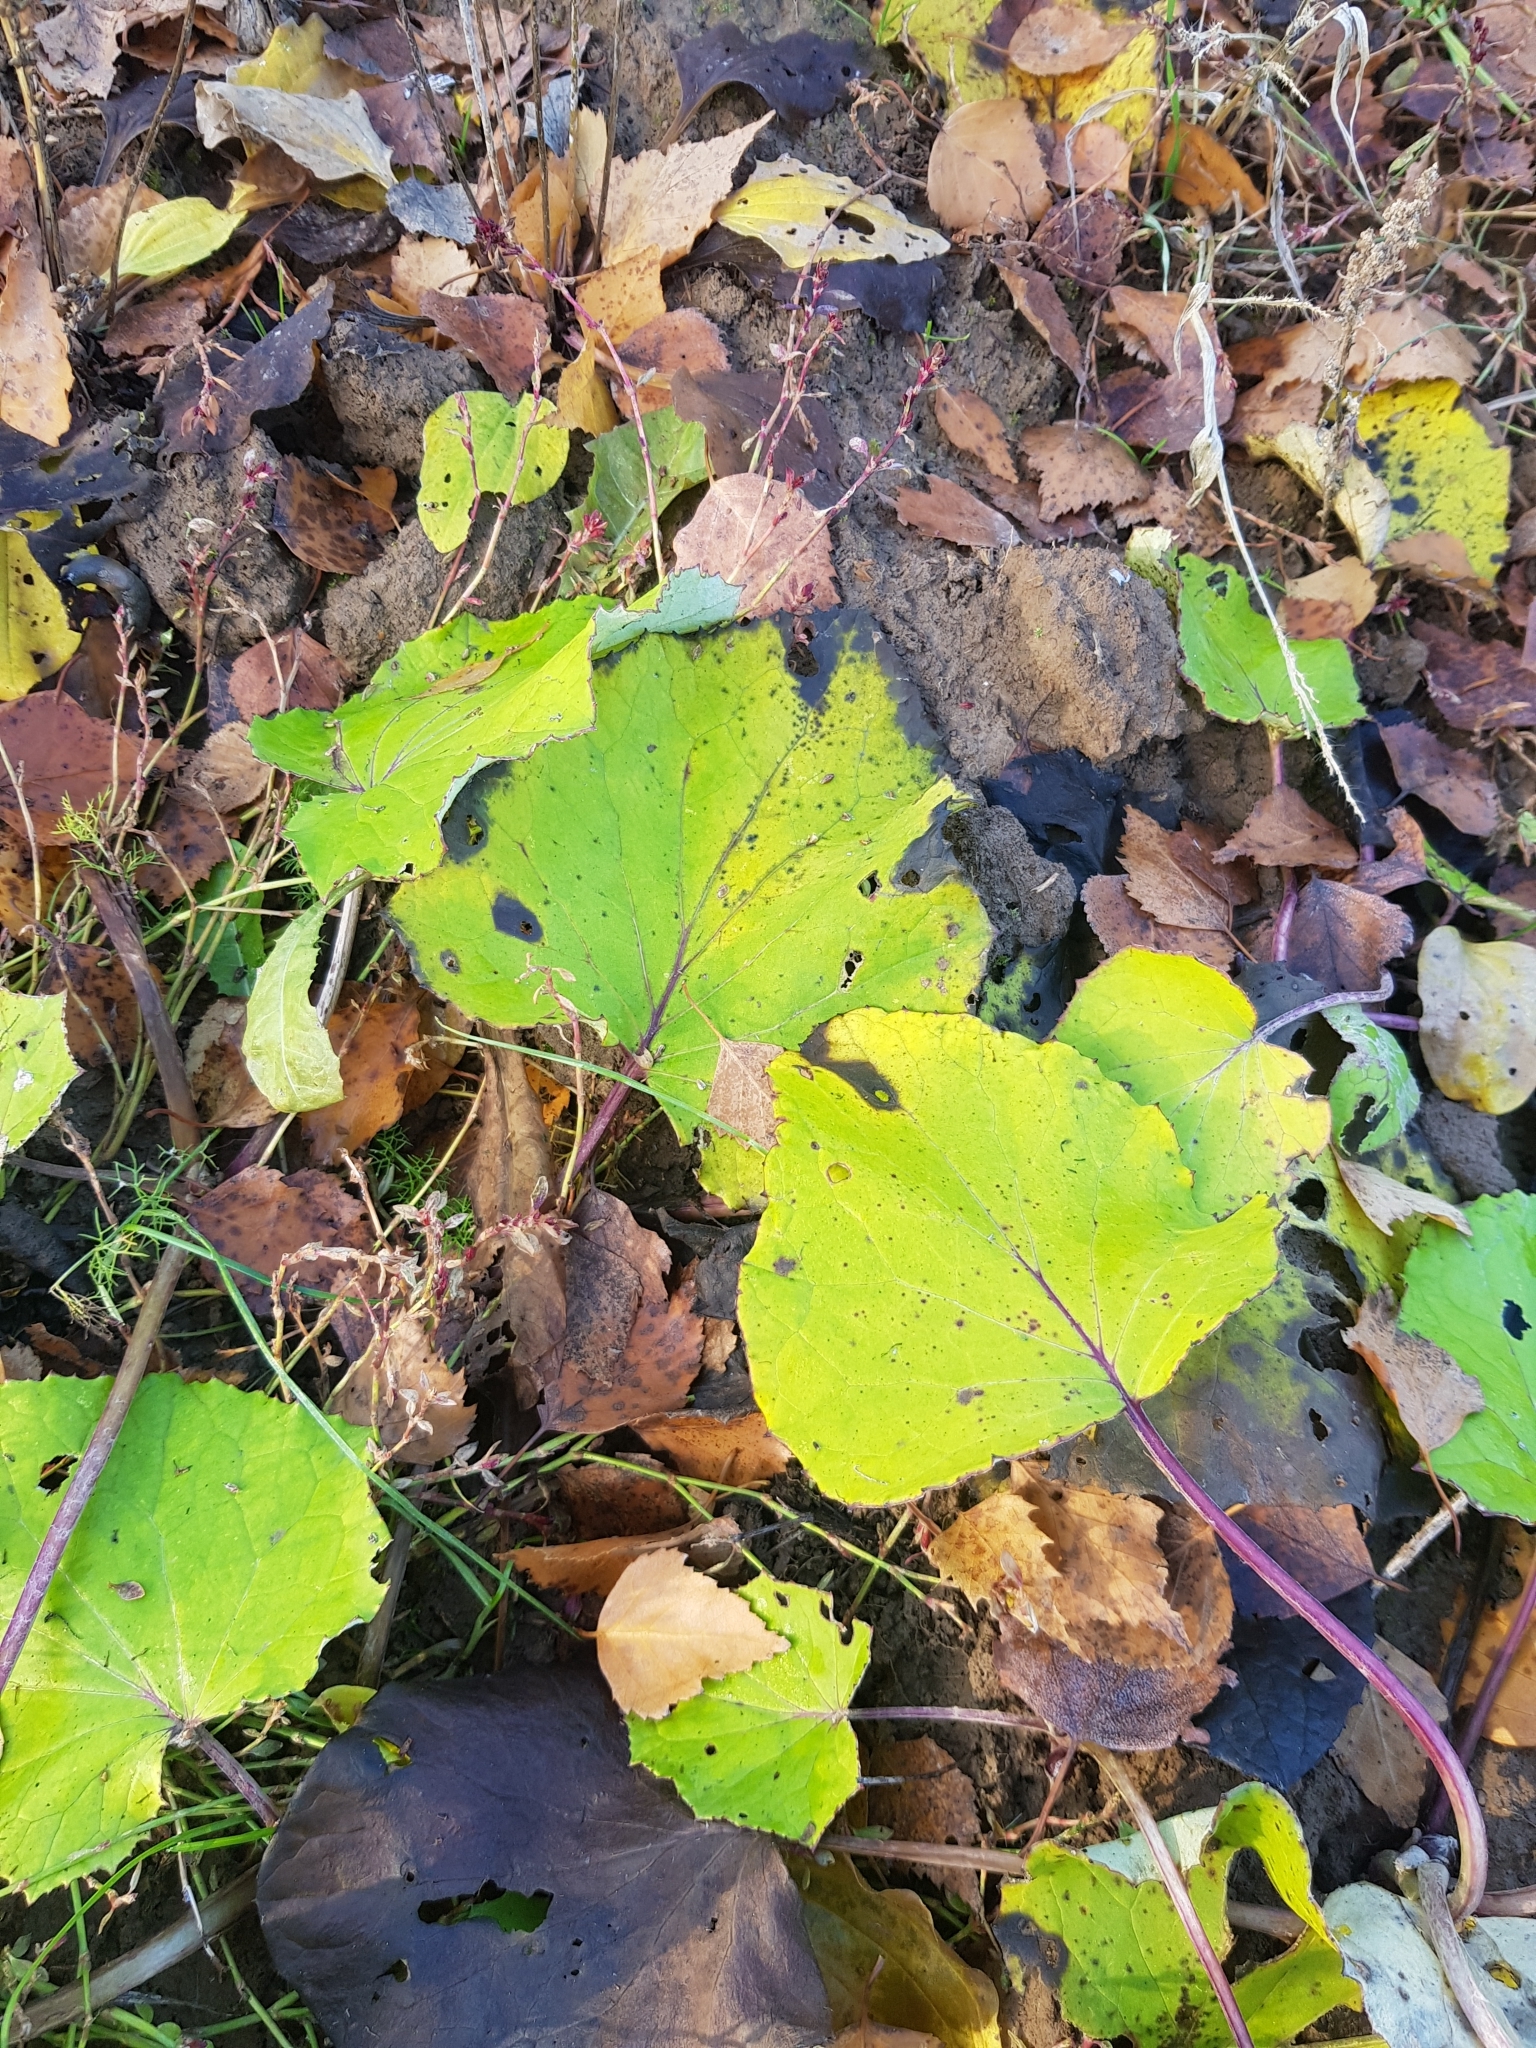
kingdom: Plantae
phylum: Tracheophyta
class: Magnoliopsida
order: Asterales
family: Asteraceae
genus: Tussilago
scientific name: Tussilago farfara
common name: Coltsfoot
